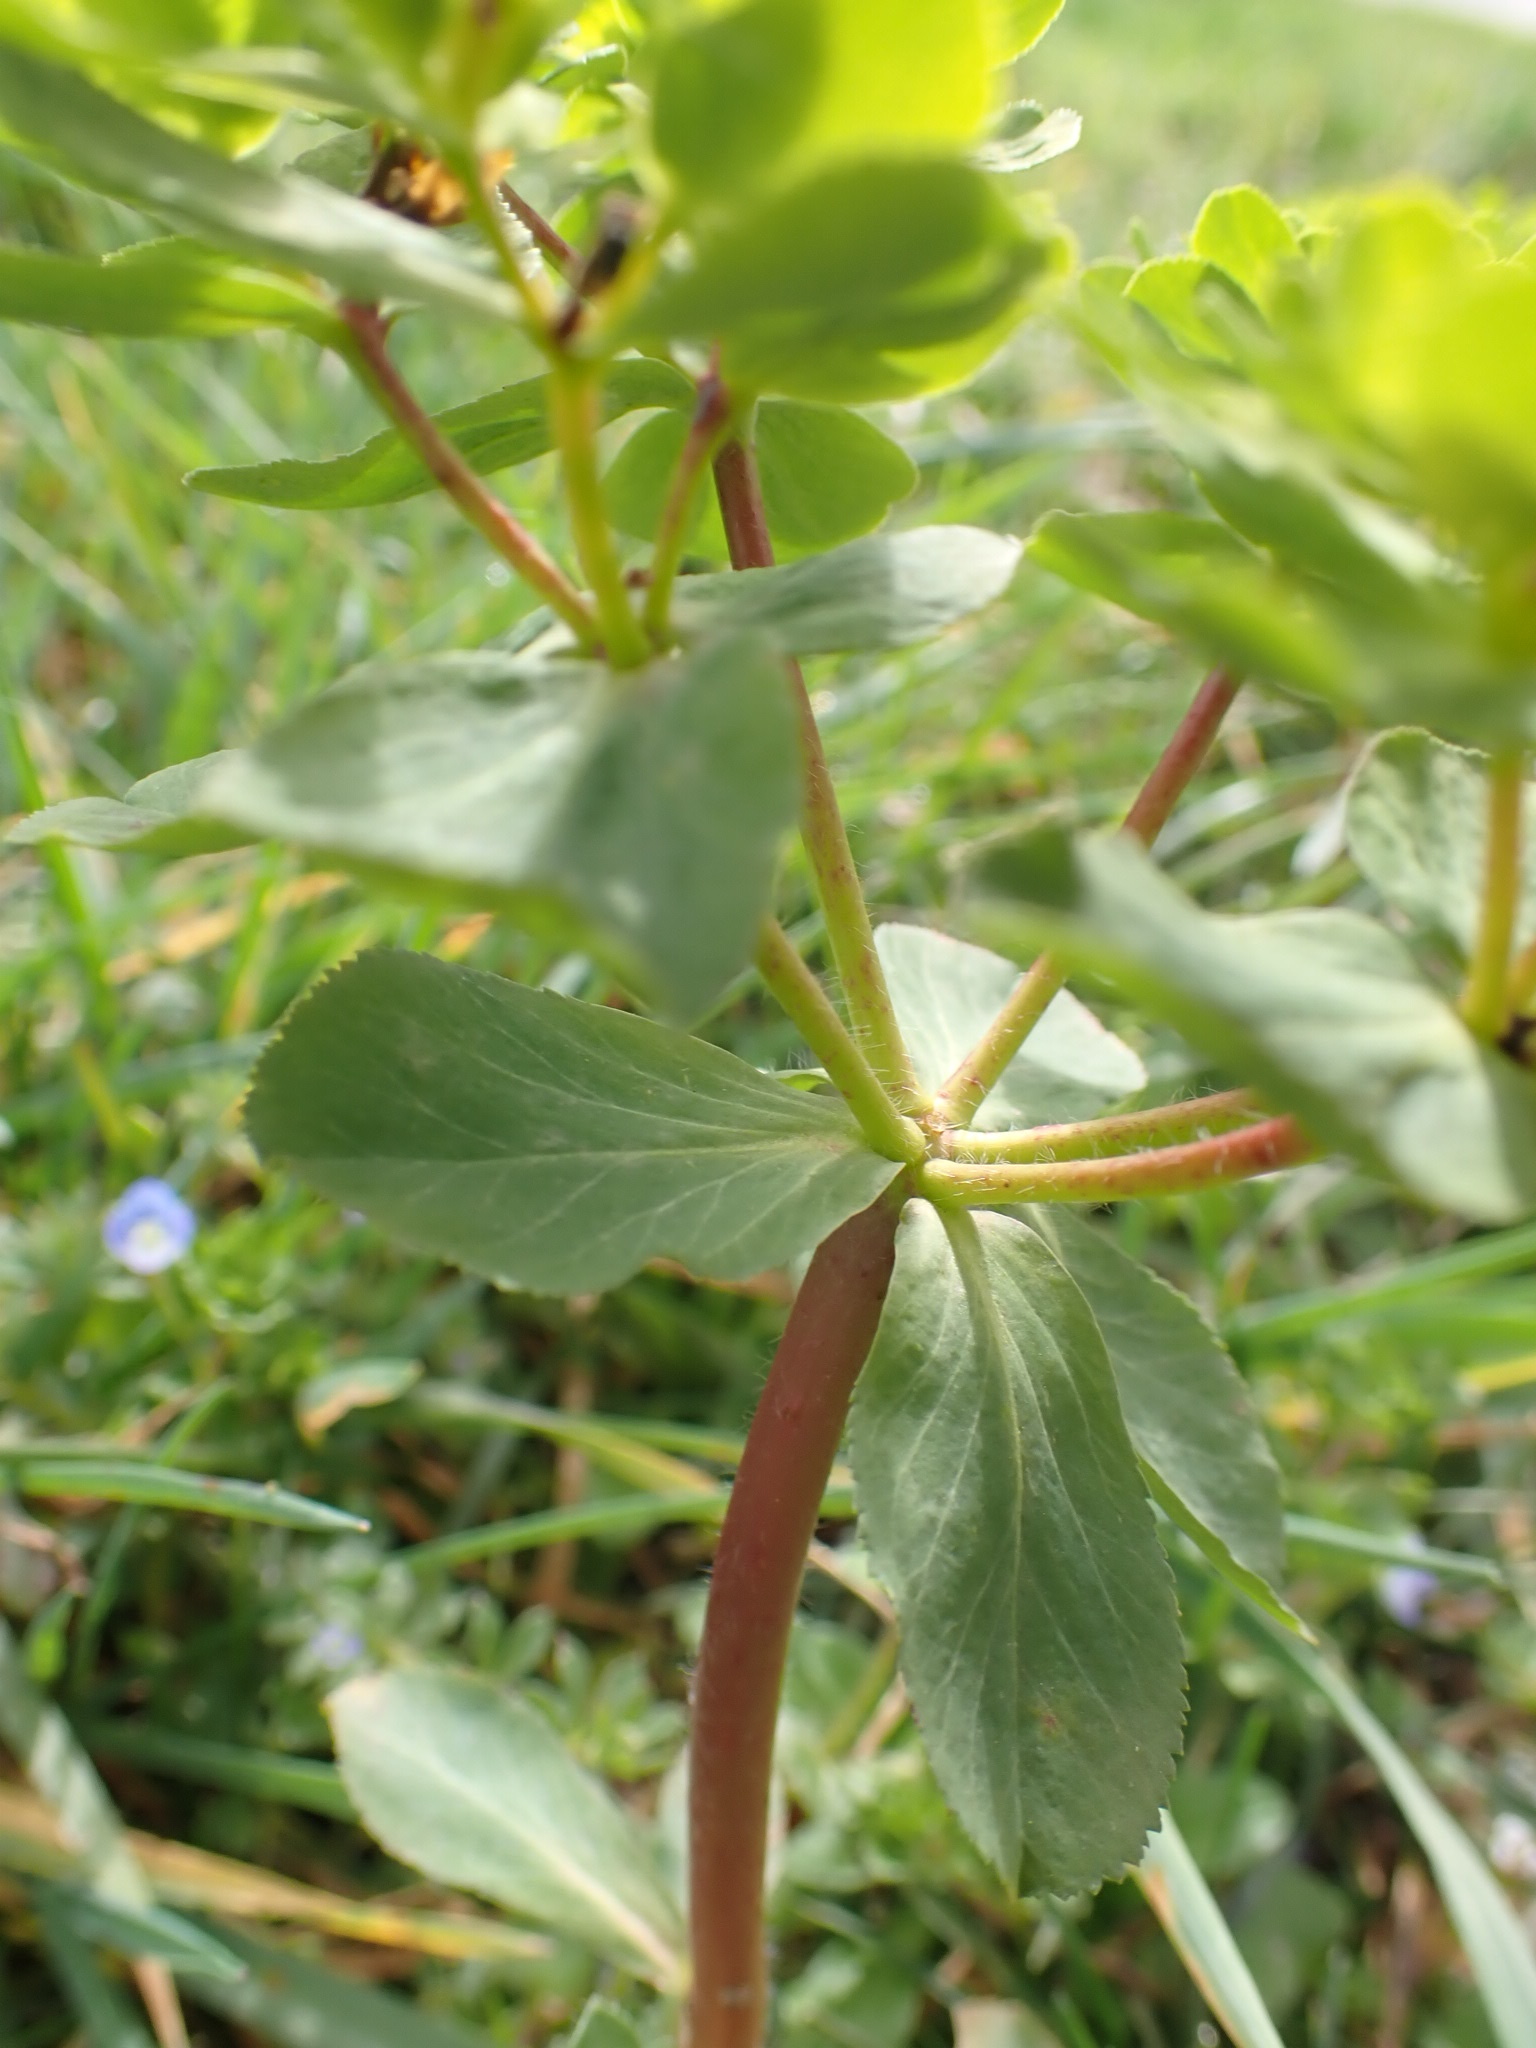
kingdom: Plantae
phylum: Tracheophyta
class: Magnoliopsida
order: Malpighiales
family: Euphorbiaceae
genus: Euphorbia
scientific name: Euphorbia helioscopia
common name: Sun spurge
